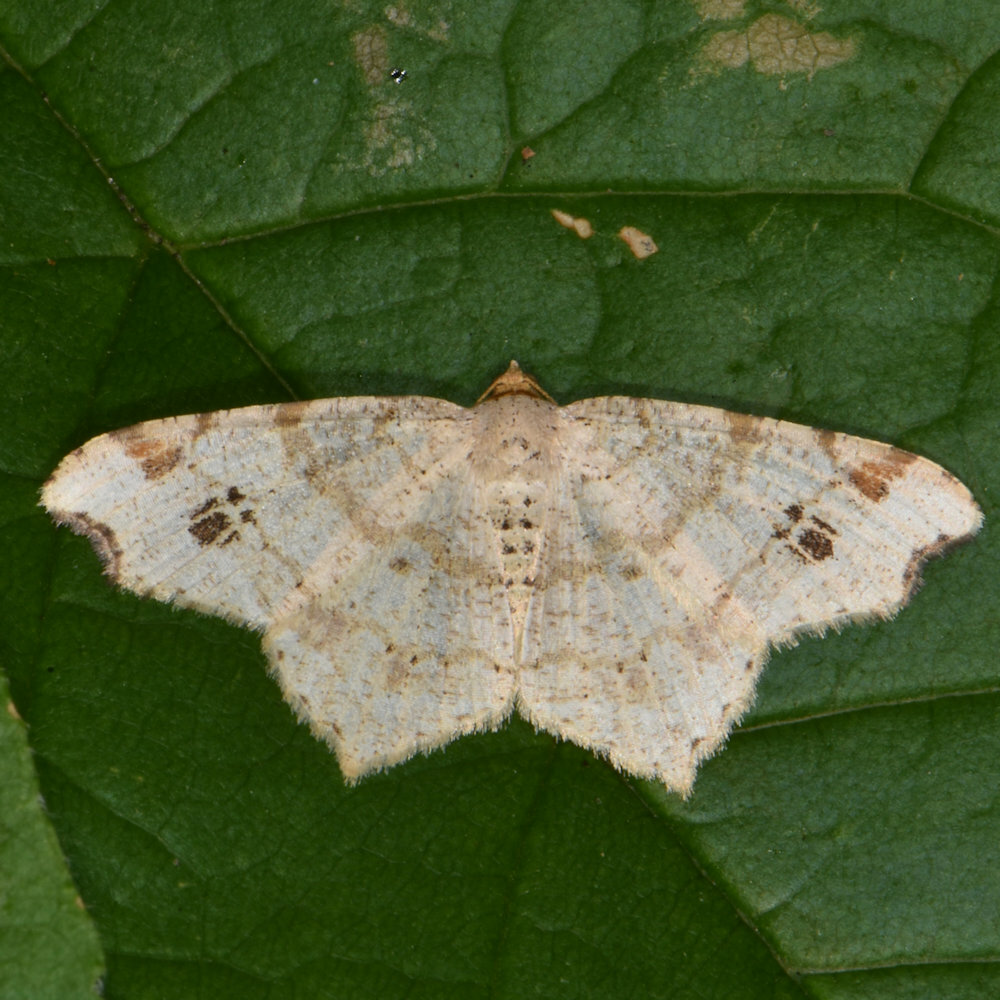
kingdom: Animalia
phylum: Arthropoda
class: Insecta
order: Lepidoptera
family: Geometridae
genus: Macaria
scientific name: Macaria aemulataria
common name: Common angle
